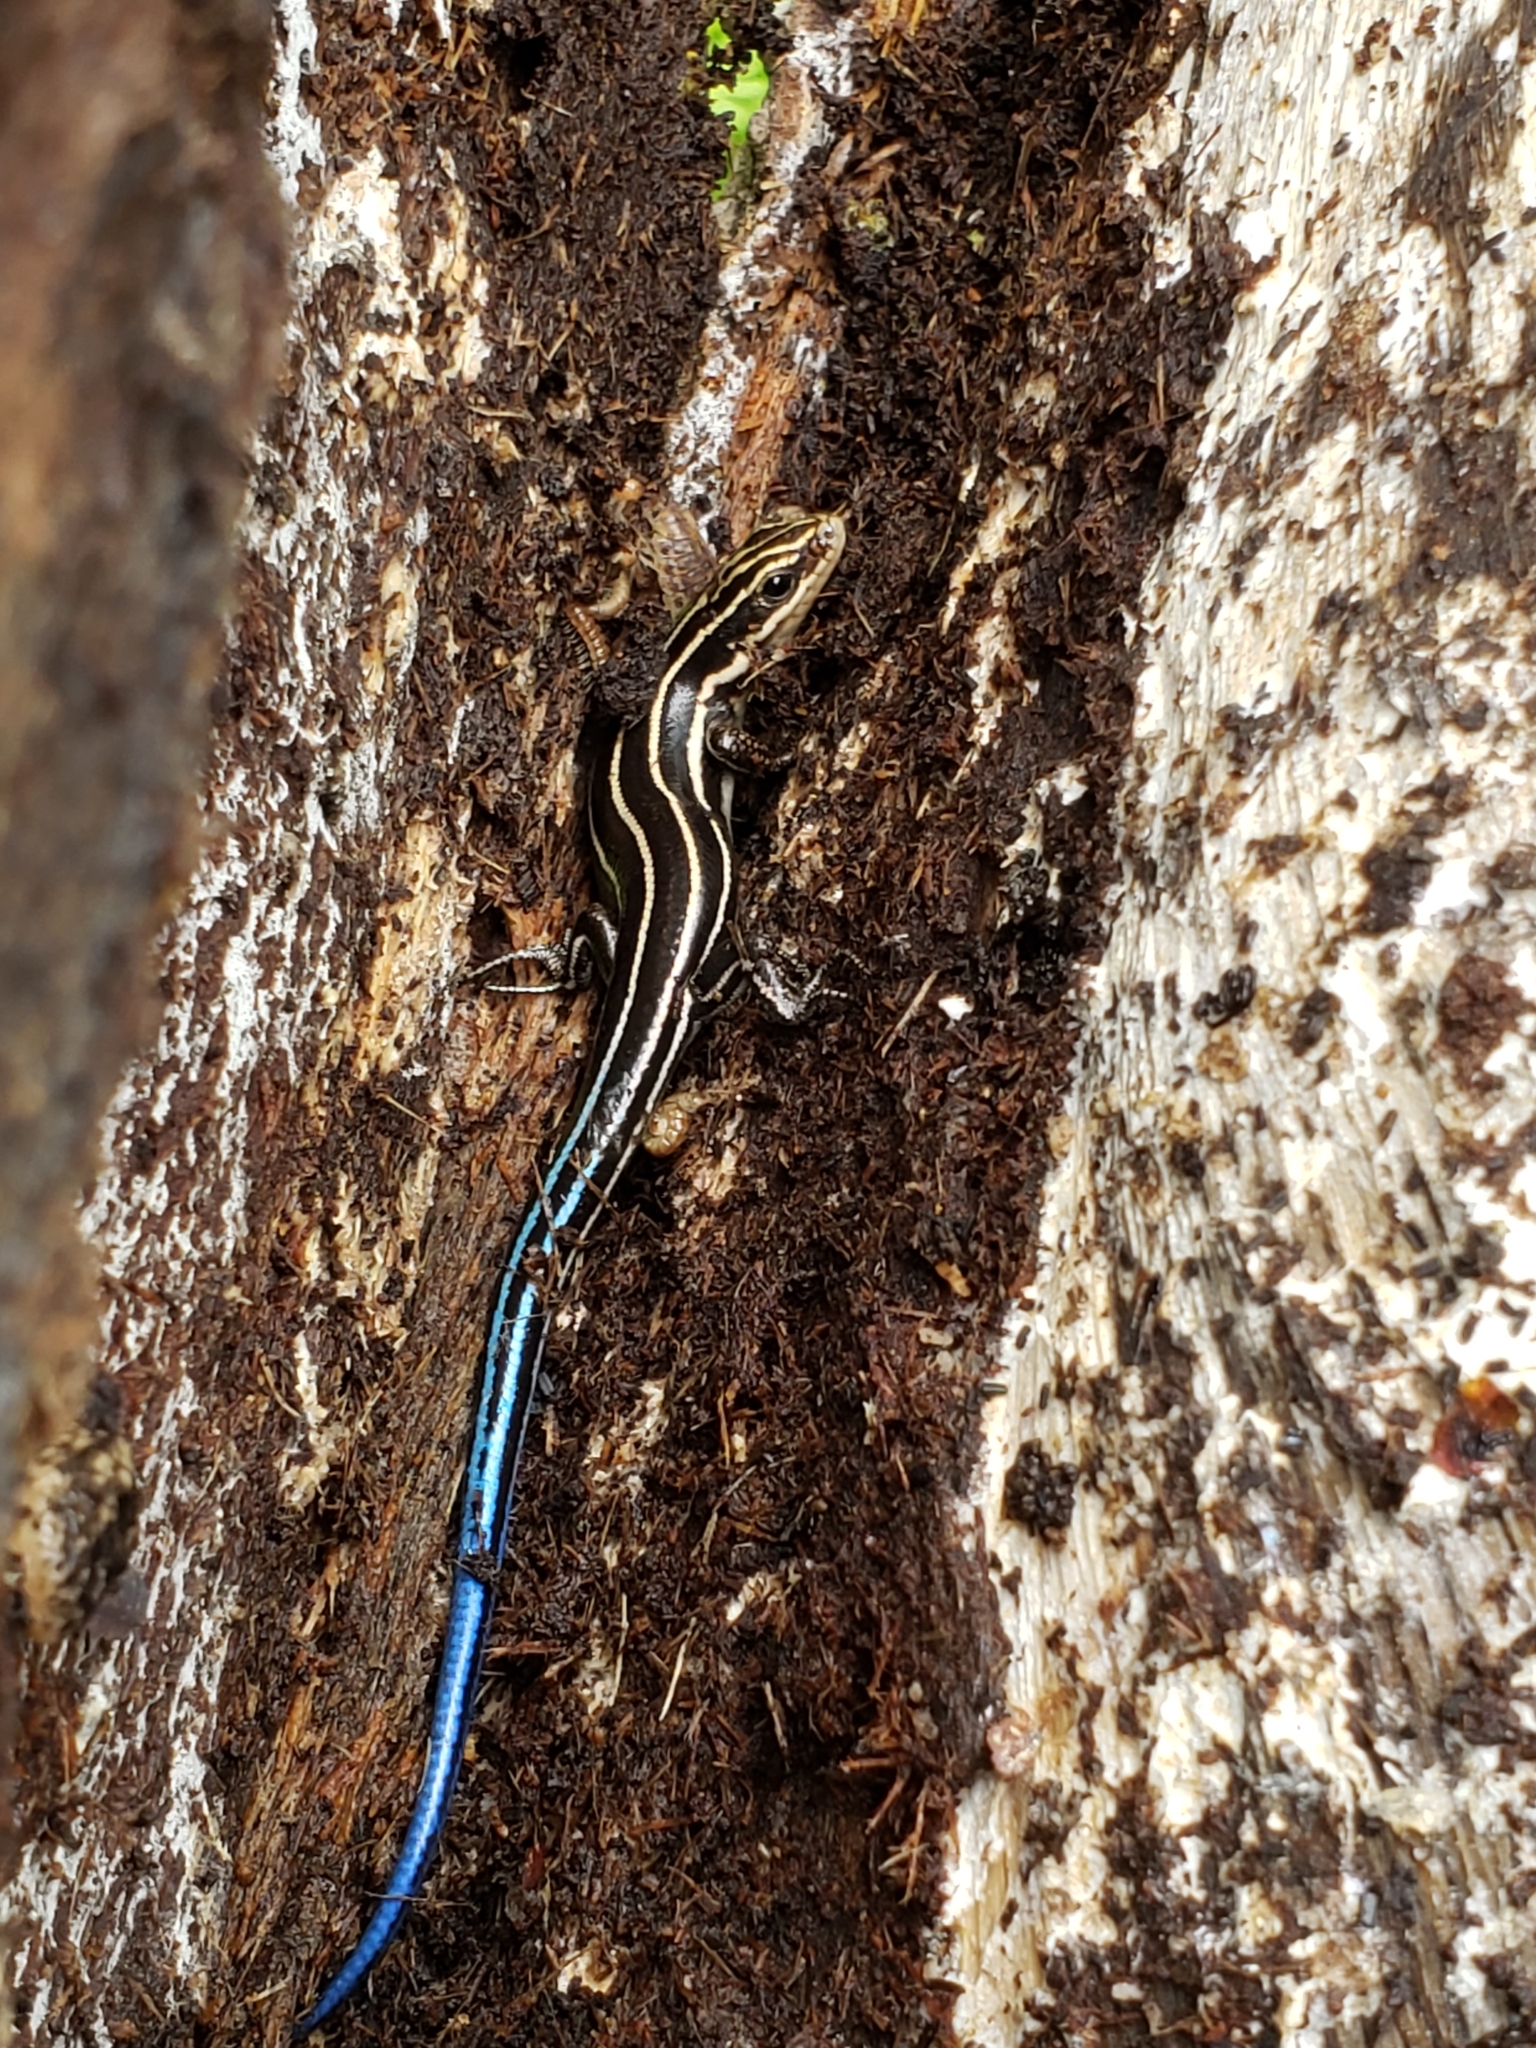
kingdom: Animalia
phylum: Chordata
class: Squamata
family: Scincidae
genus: Plestiodon
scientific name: Plestiodon fasciatus
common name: Five-lined skink
